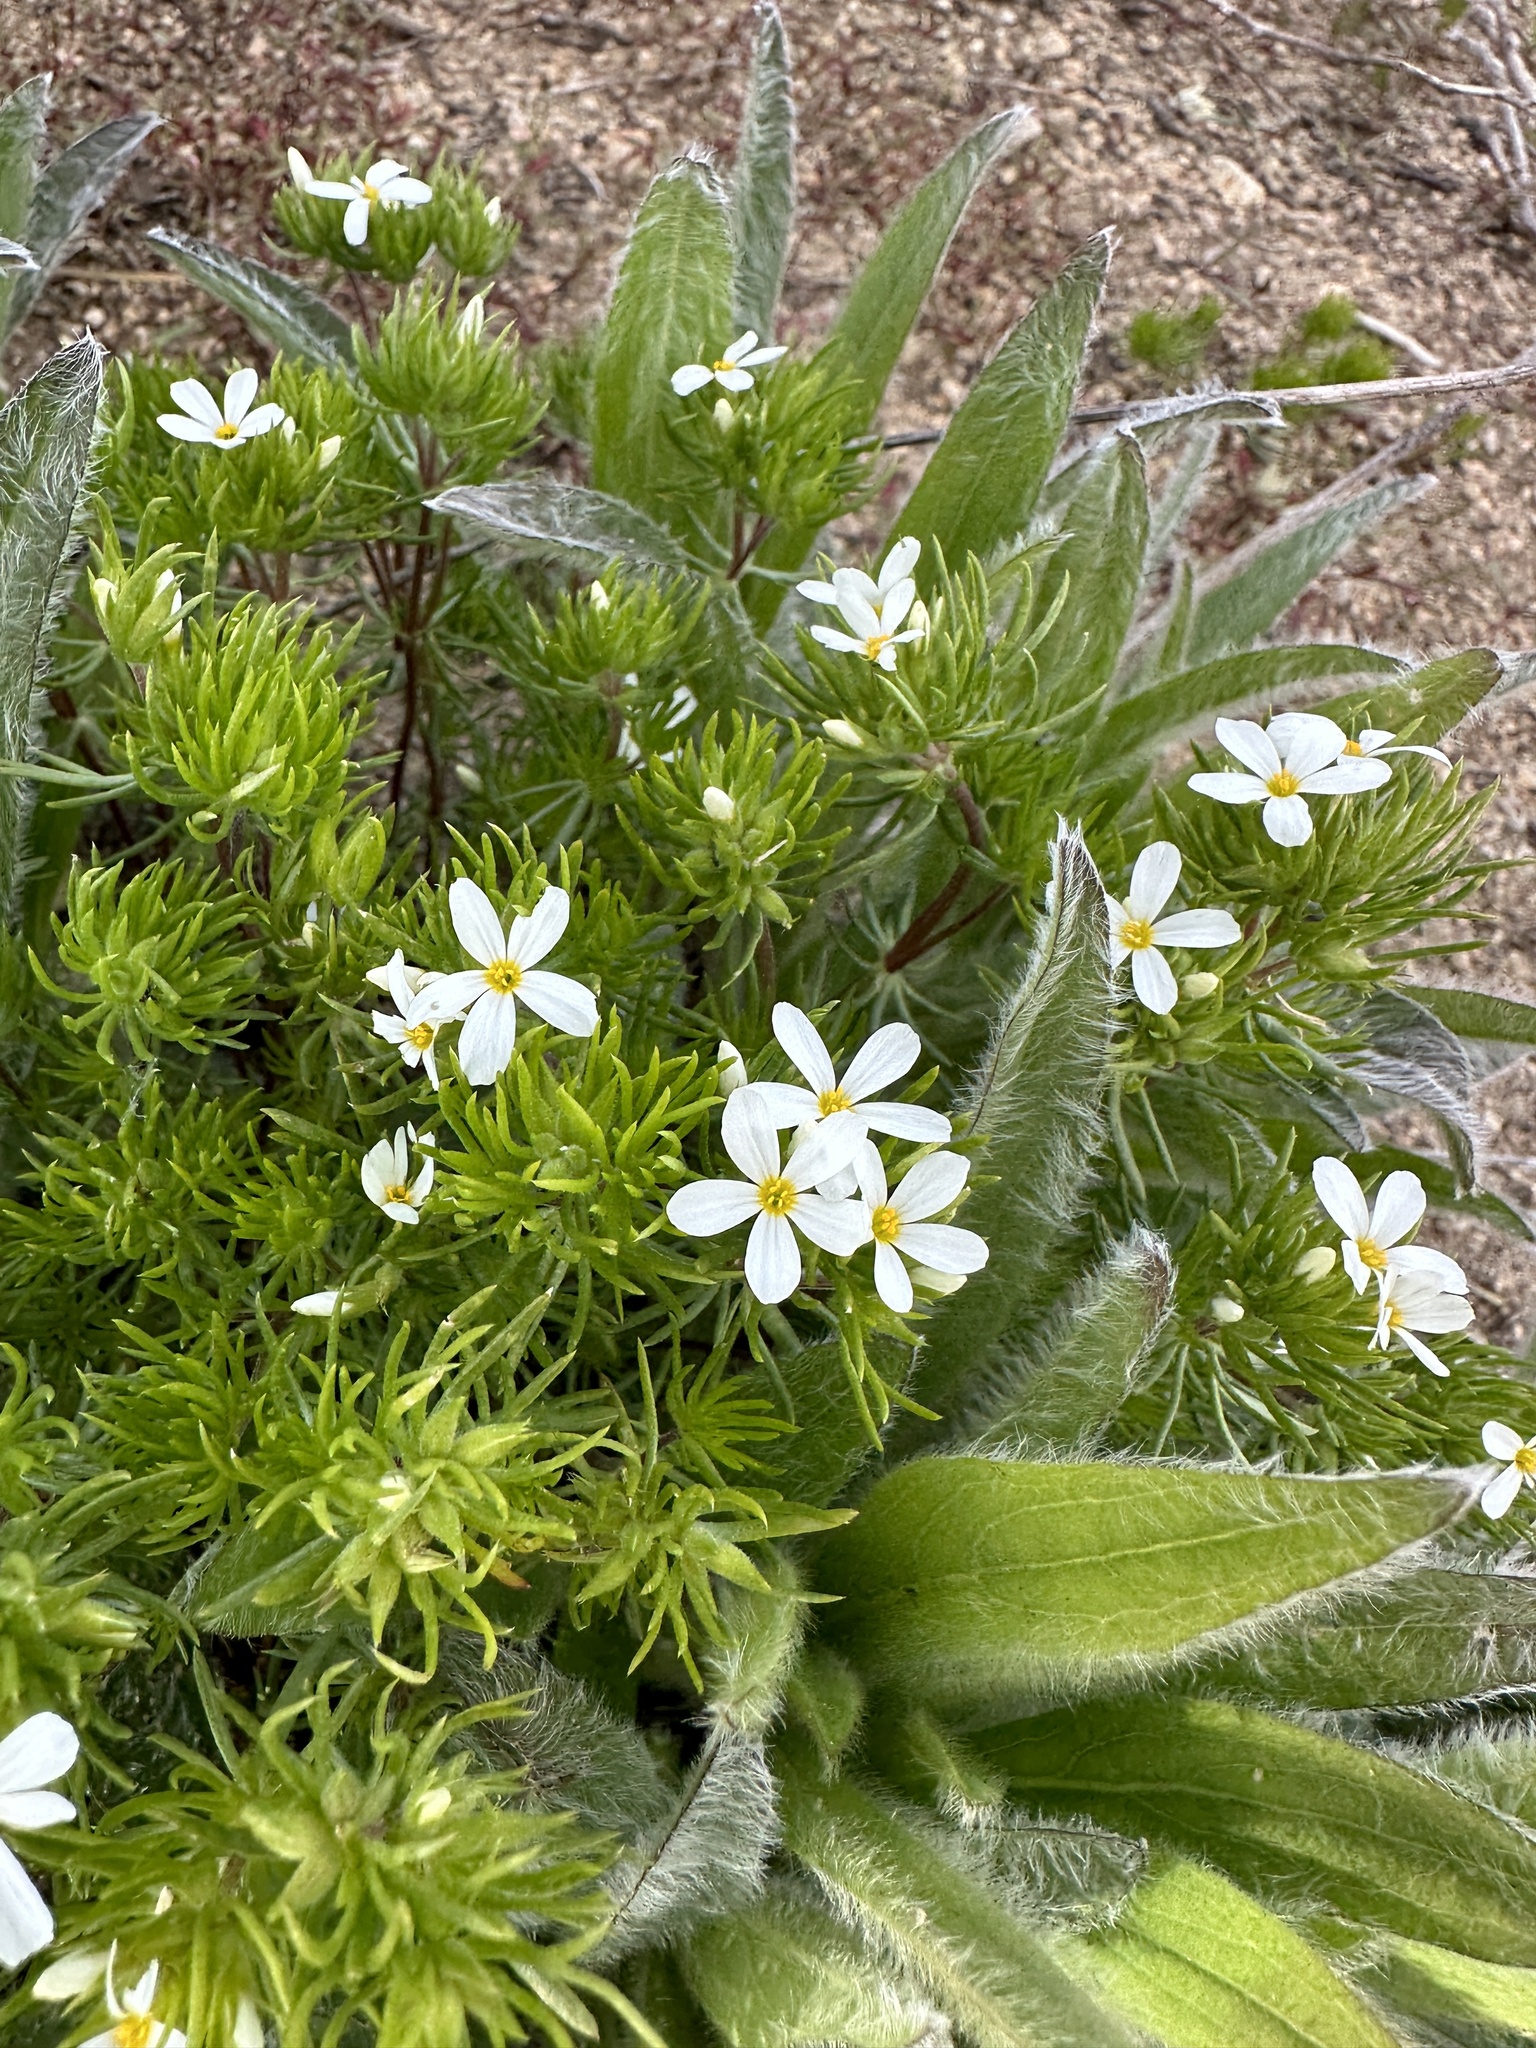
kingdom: Plantae
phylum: Tracheophyta
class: Magnoliopsida
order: Ericales
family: Polemoniaceae
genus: Leptosiphon
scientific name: Leptosiphon nuttallii
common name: Nuttall's linanthus
